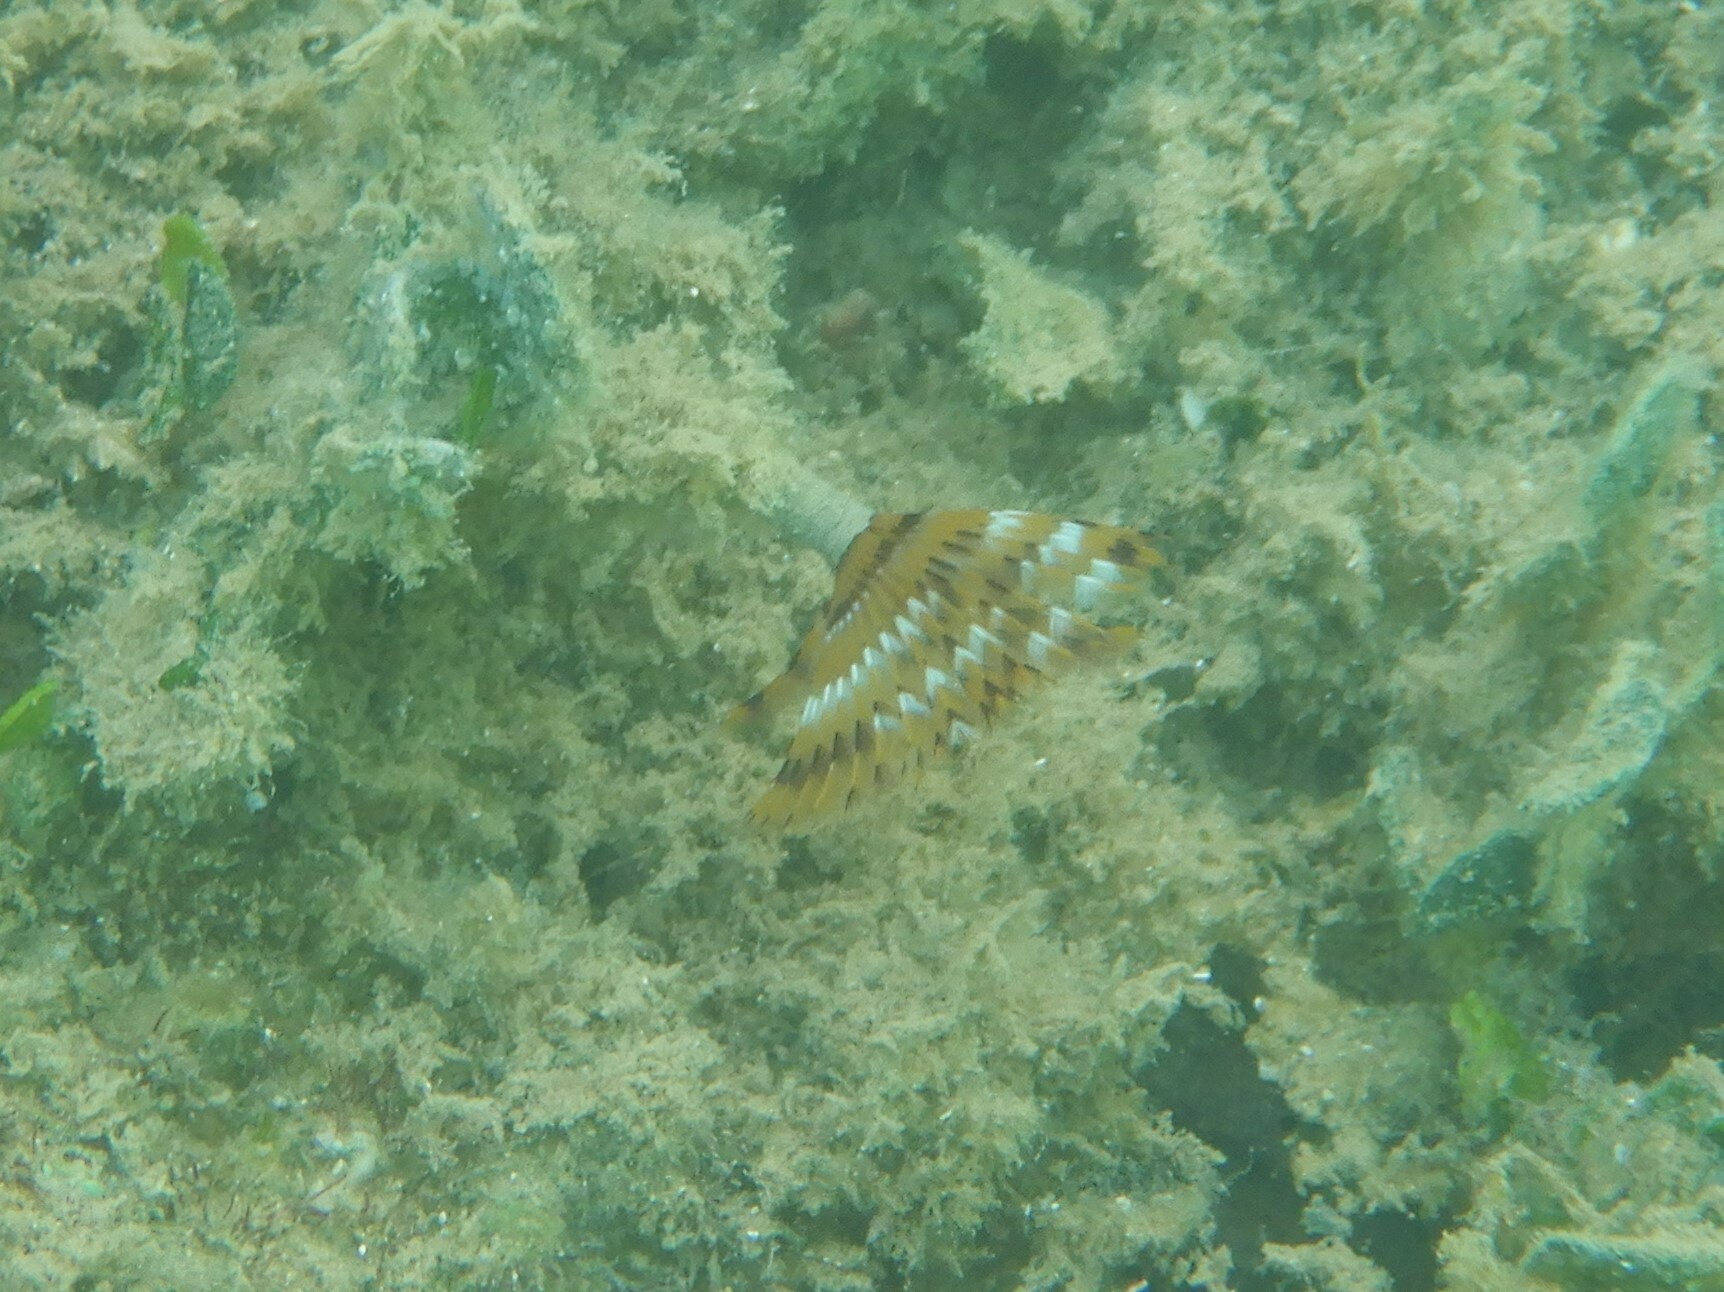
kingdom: Animalia
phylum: Annelida
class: Polychaeta
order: Sabellida
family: Sabellidae
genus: Sabella
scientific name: Sabella spallanzanii
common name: Feather duster worm
